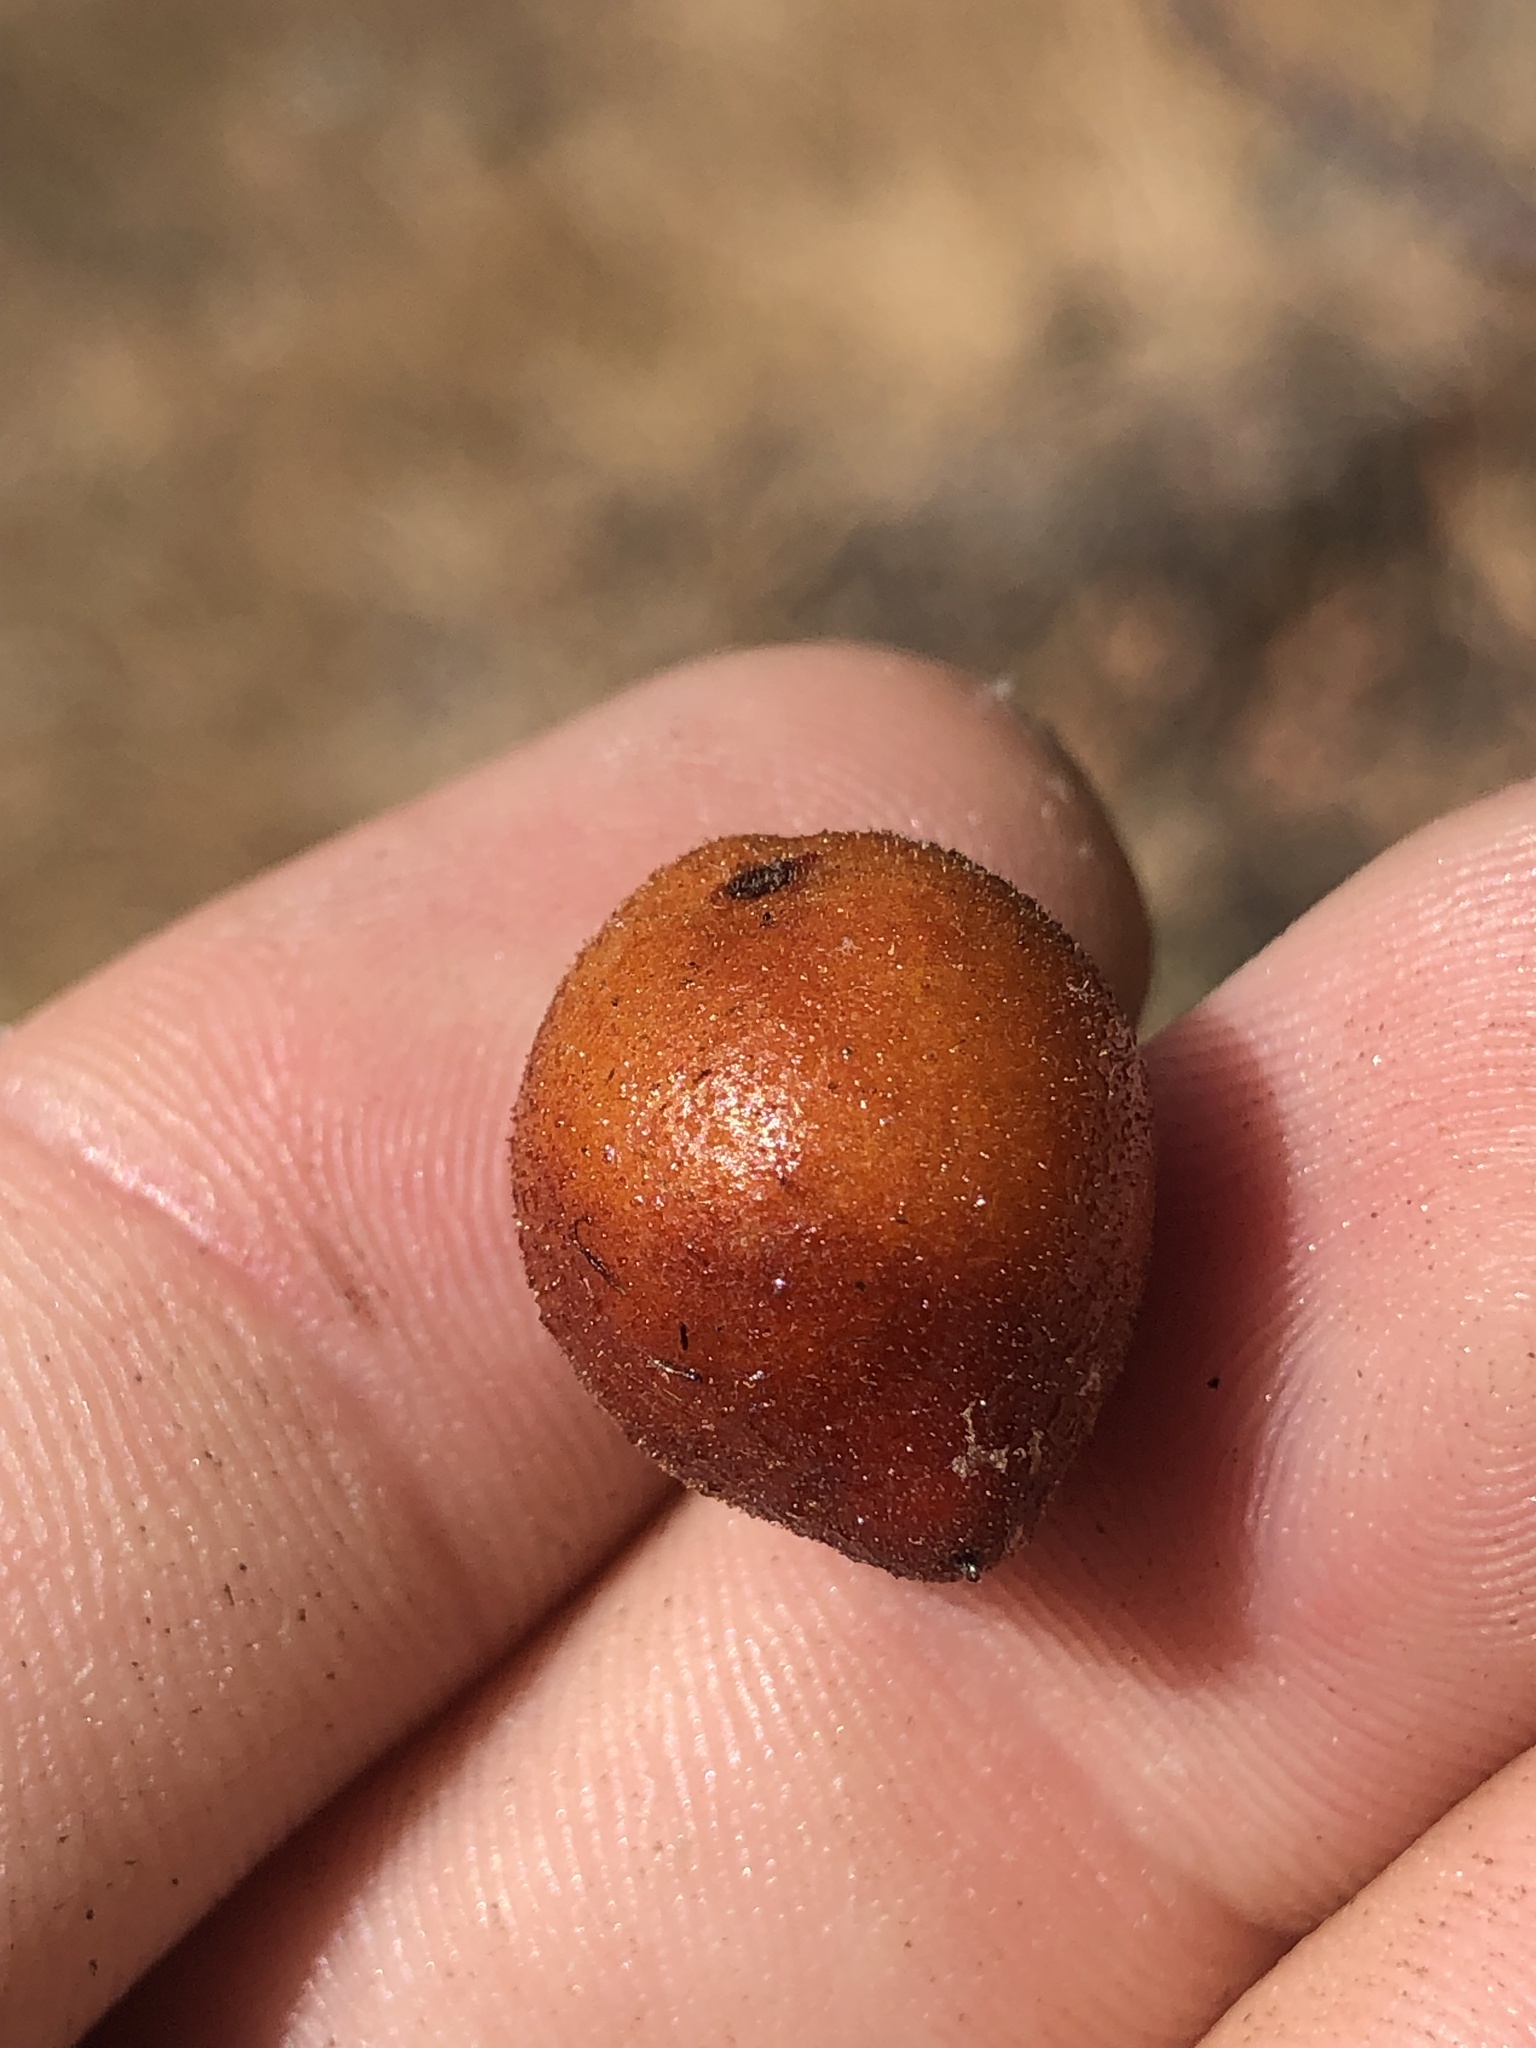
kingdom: Plantae
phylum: Tracheophyta
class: Magnoliopsida
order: Ericales
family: Ericaceae
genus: Arctostaphylos
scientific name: Arctostaphylos glauca
